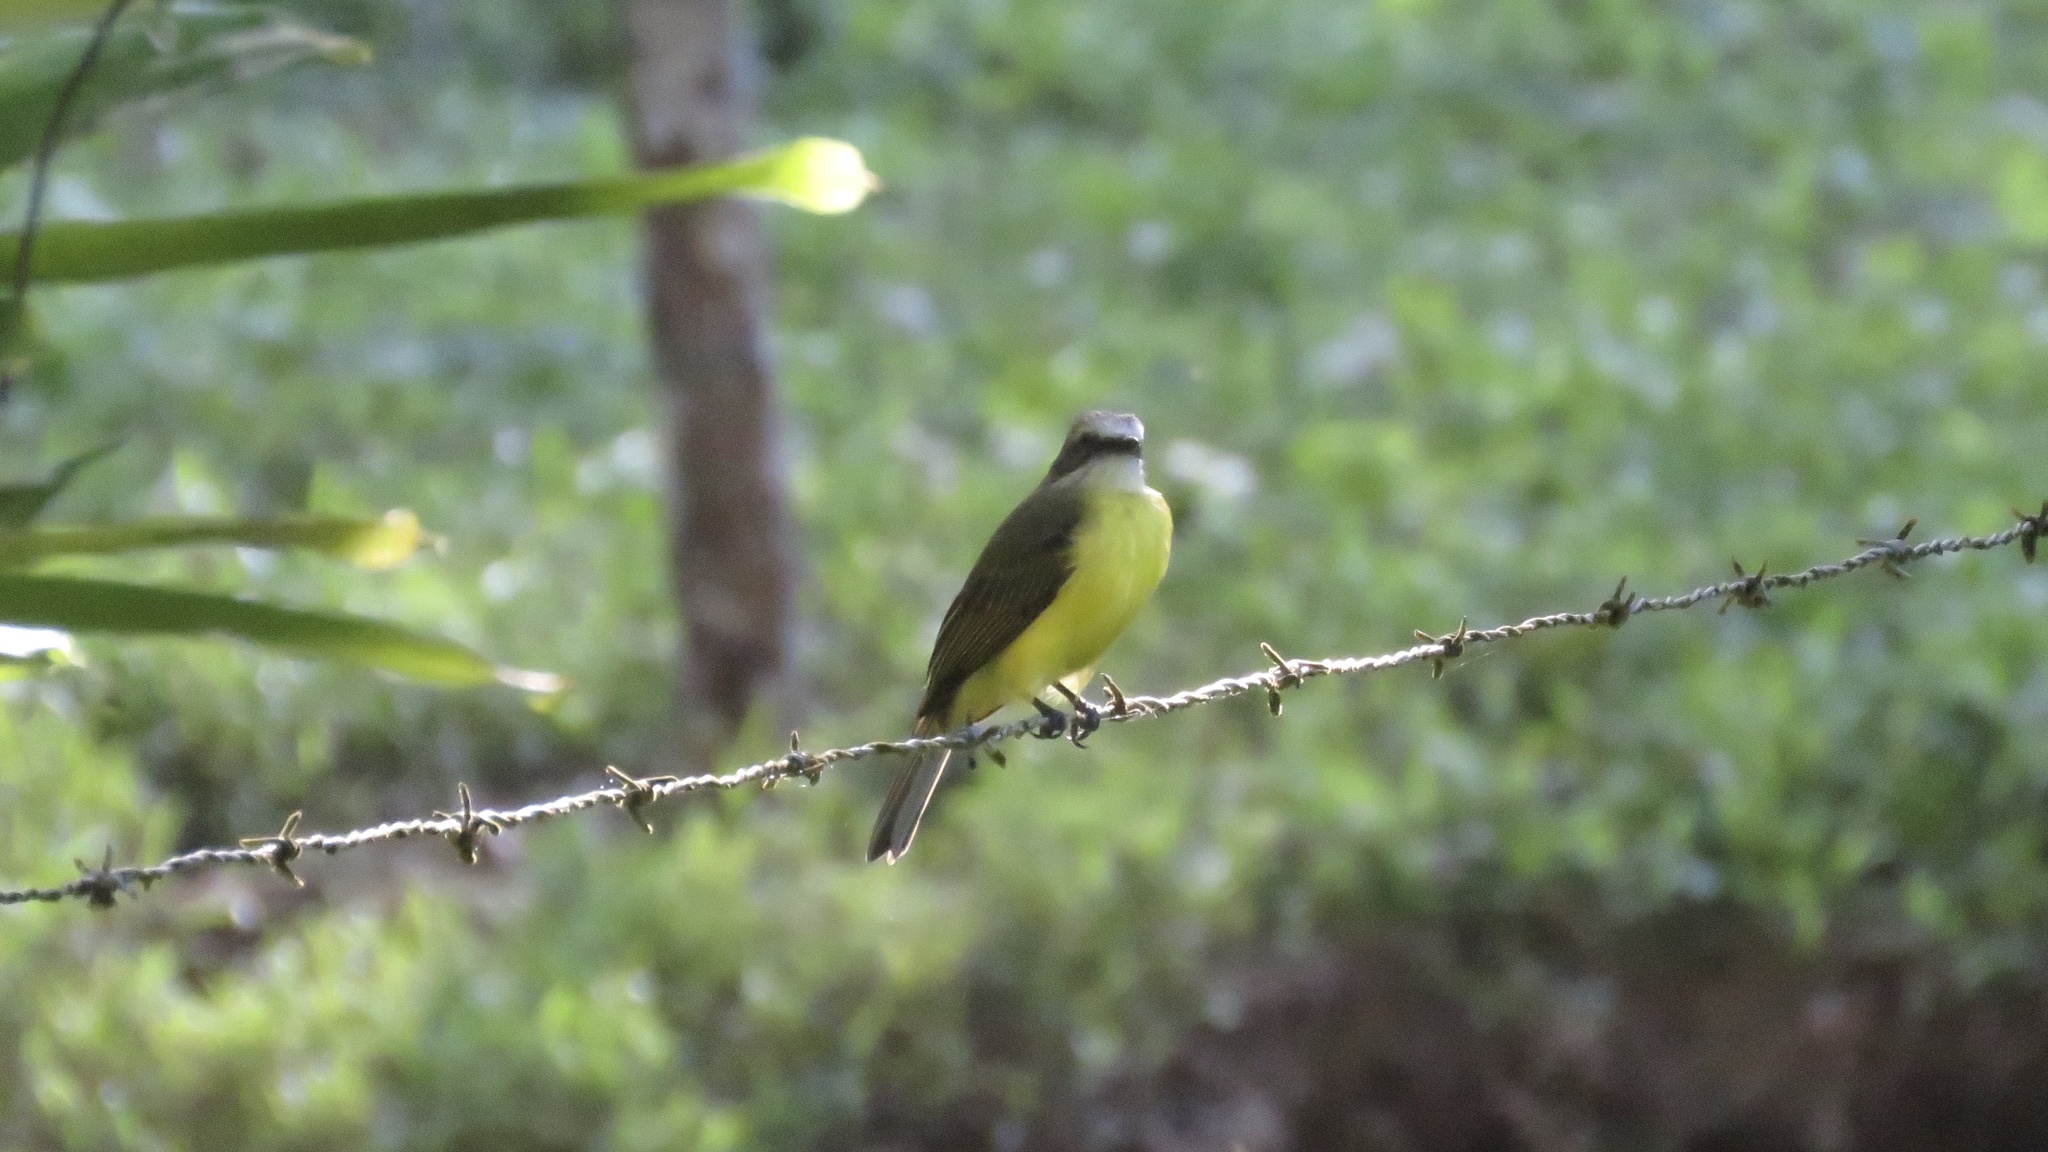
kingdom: Animalia
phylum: Chordata
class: Aves
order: Passeriformes
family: Tyrannidae
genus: Myiozetetes
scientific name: Myiozetetes granadensis
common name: Gray-capped flycatcher
